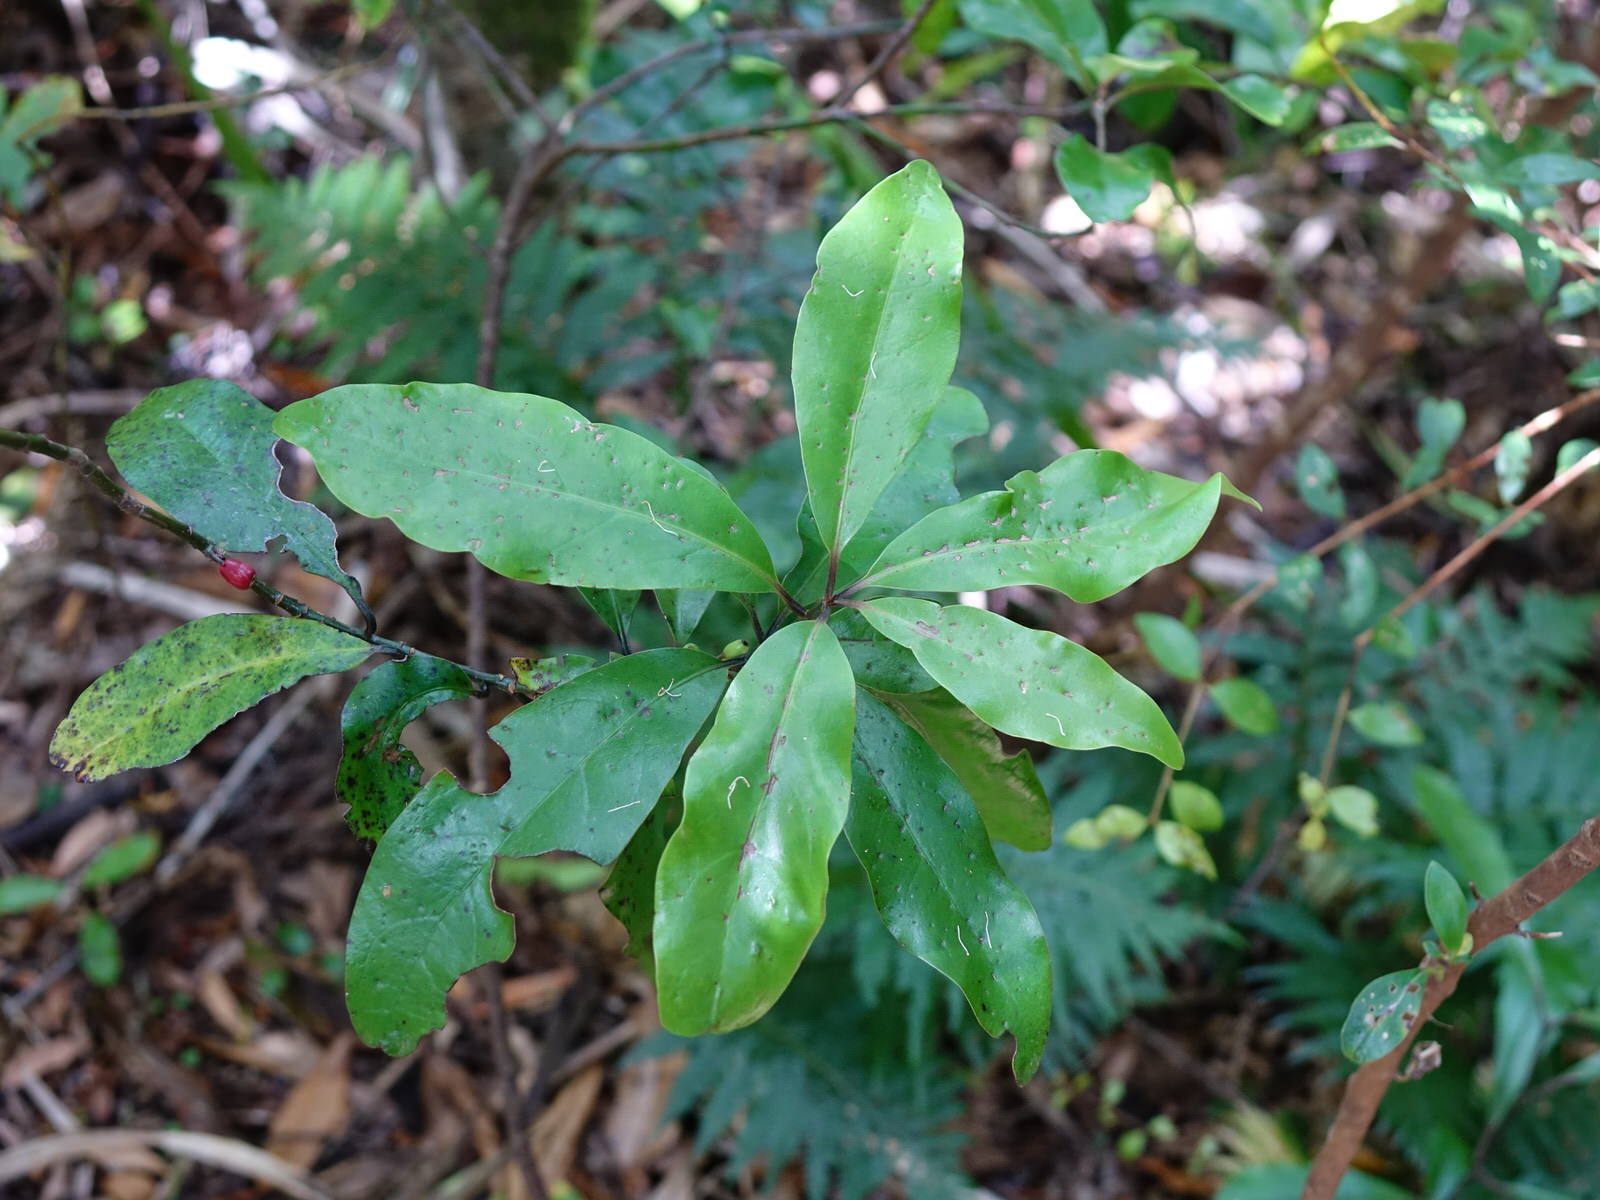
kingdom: Plantae
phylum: Tracheophyta
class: Magnoliopsida
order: Asterales
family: Alseuosmiaceae
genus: Alseuosmia
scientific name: Alseuosmia macrophylla
